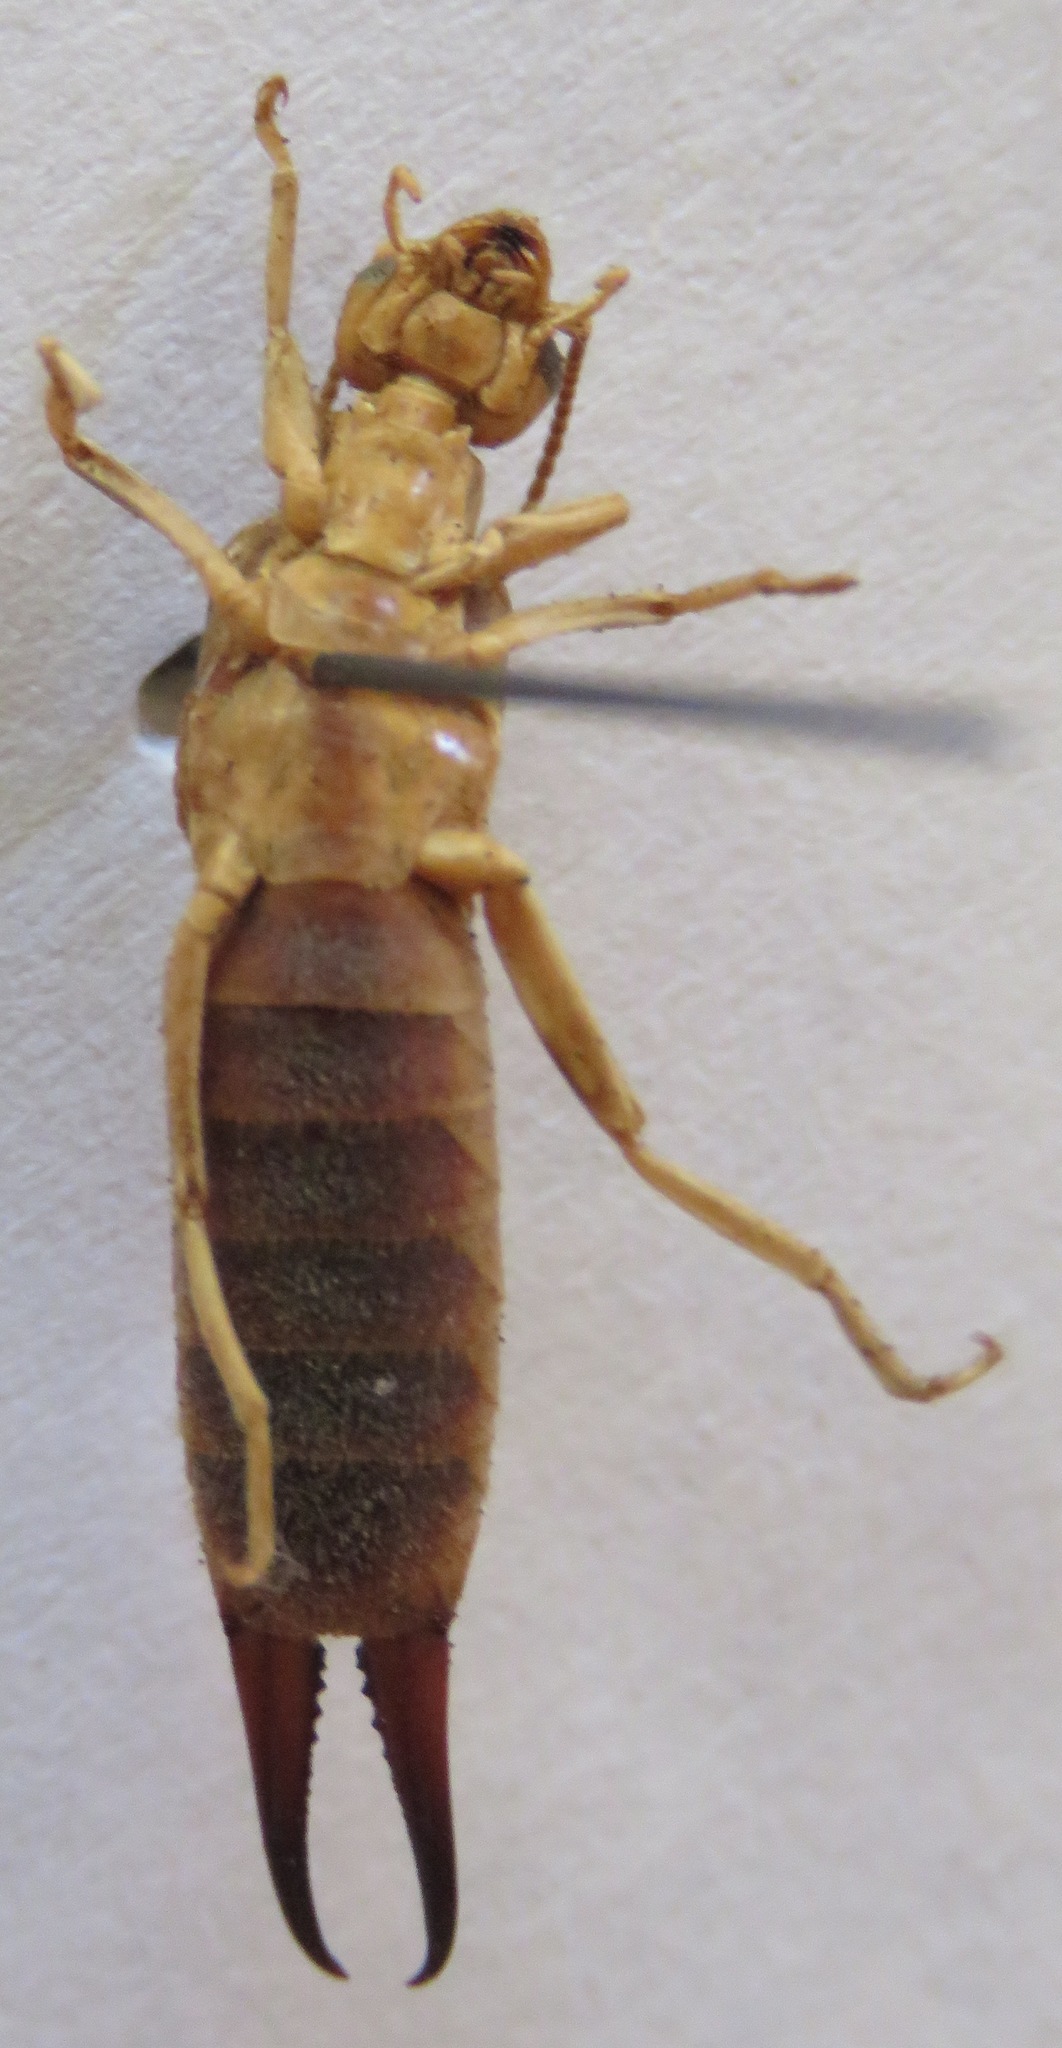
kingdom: Animalia
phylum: Arthropoda
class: Insecta
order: Dermaptera
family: Labiduridae
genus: Labidura
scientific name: Labidura riparia
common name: Striped earwig
